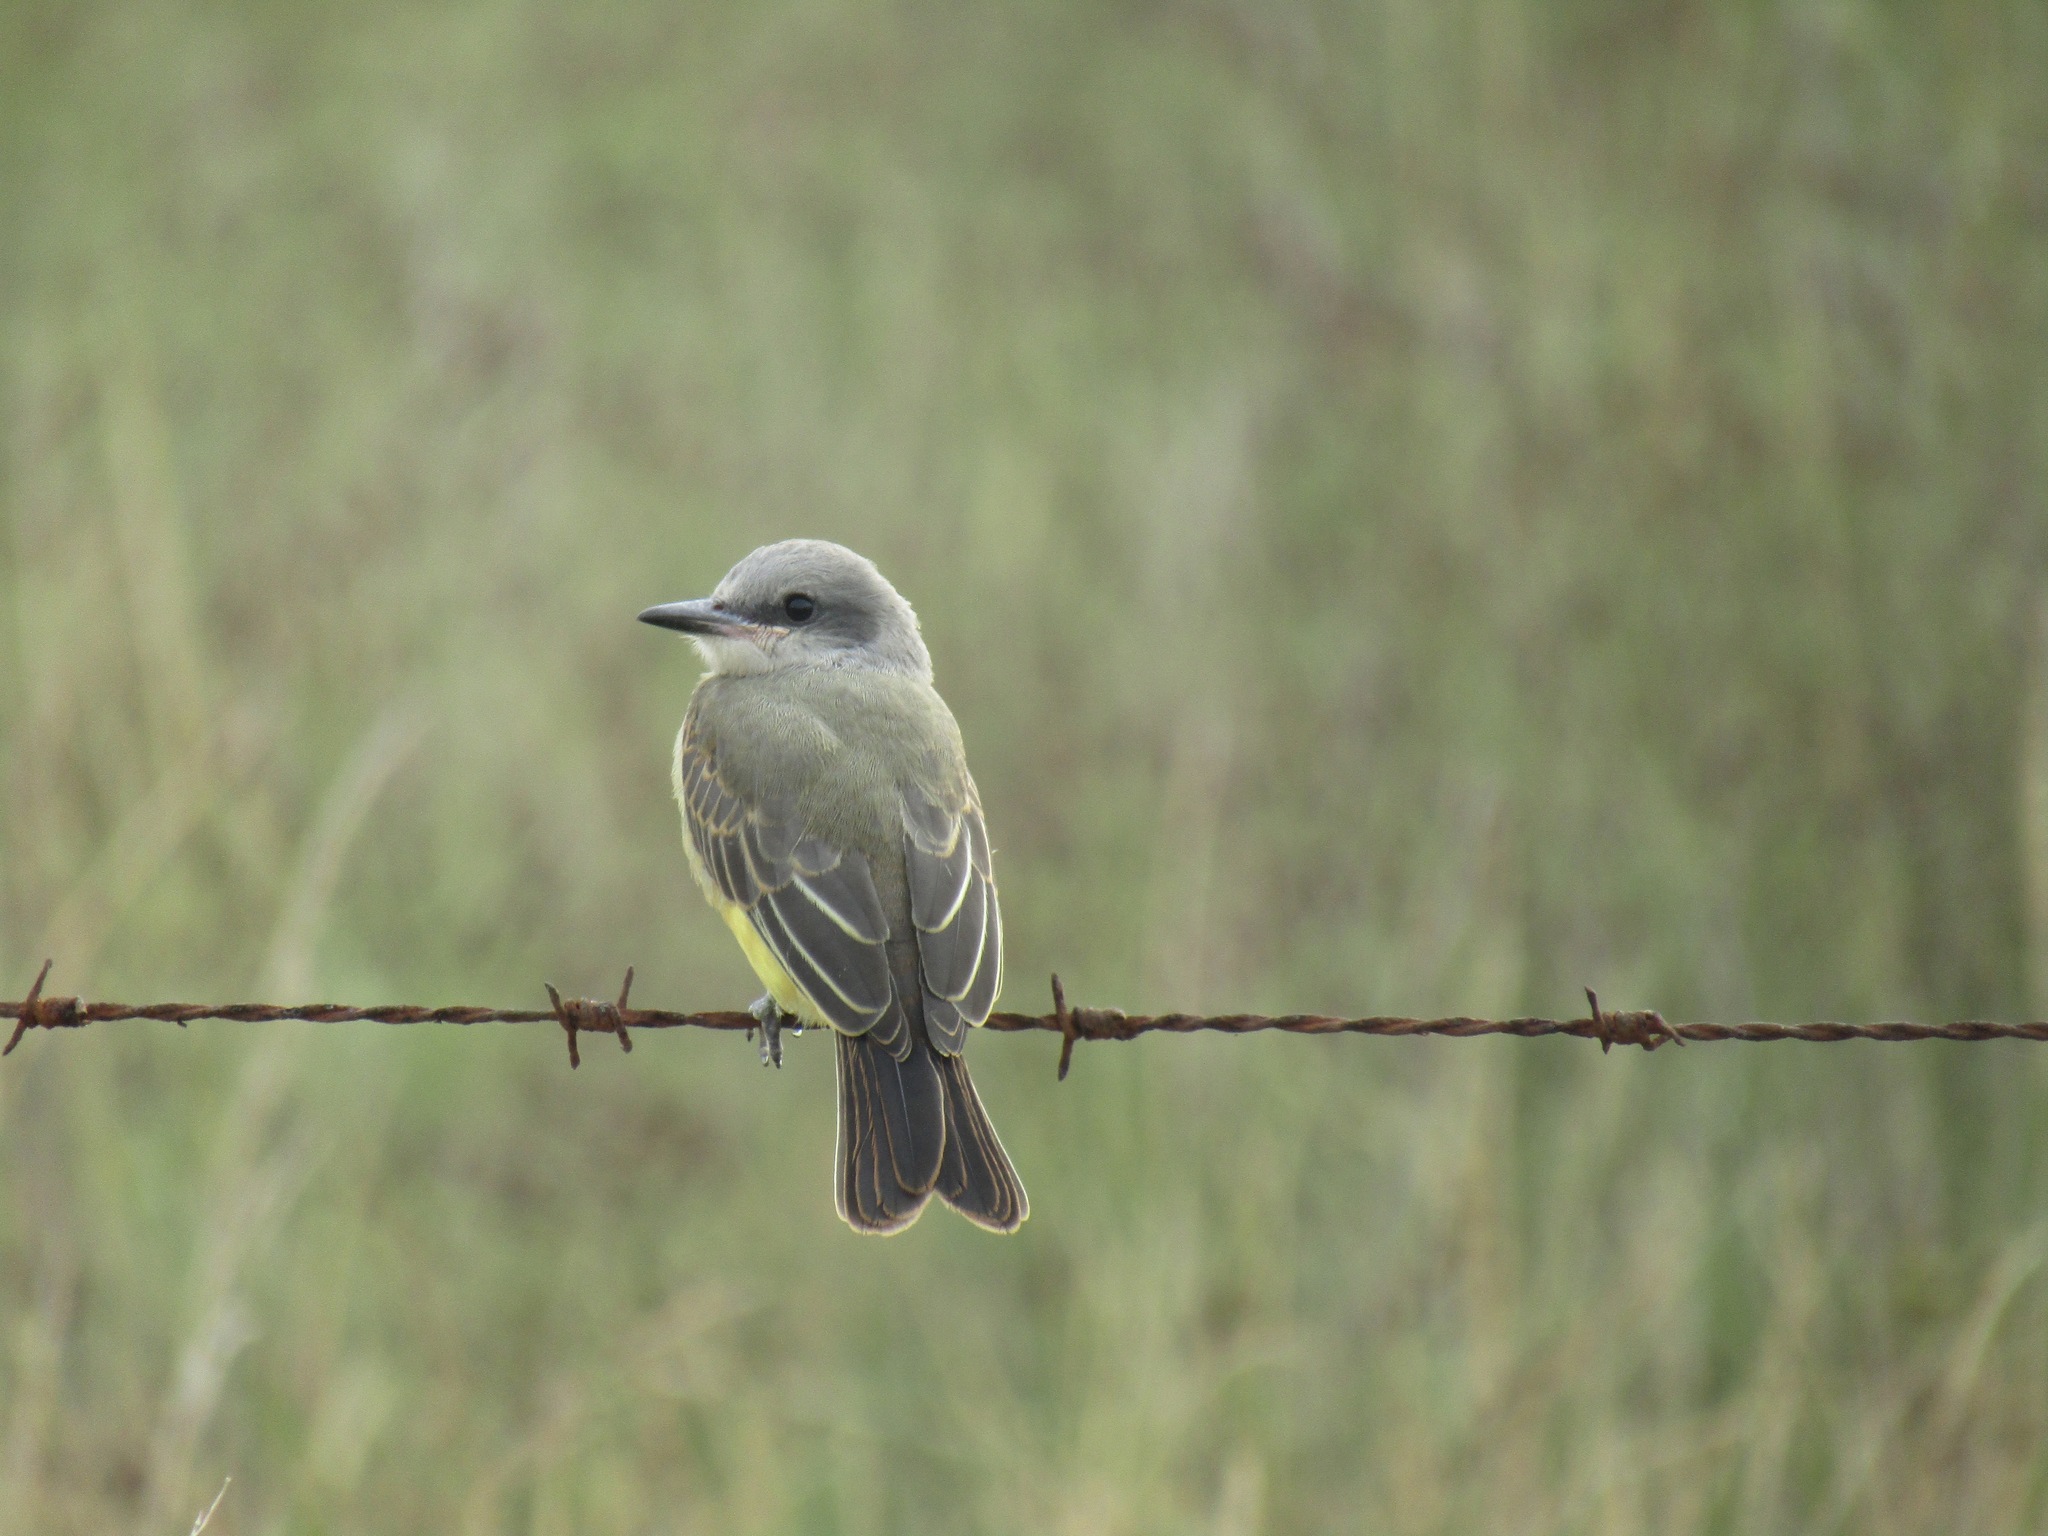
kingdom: Animalia
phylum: Chordata
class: Aves
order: Passeriformes
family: Tyrannidae
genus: Tyrannus
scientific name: Tyrannus melancholicus
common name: Tropical kingbird
